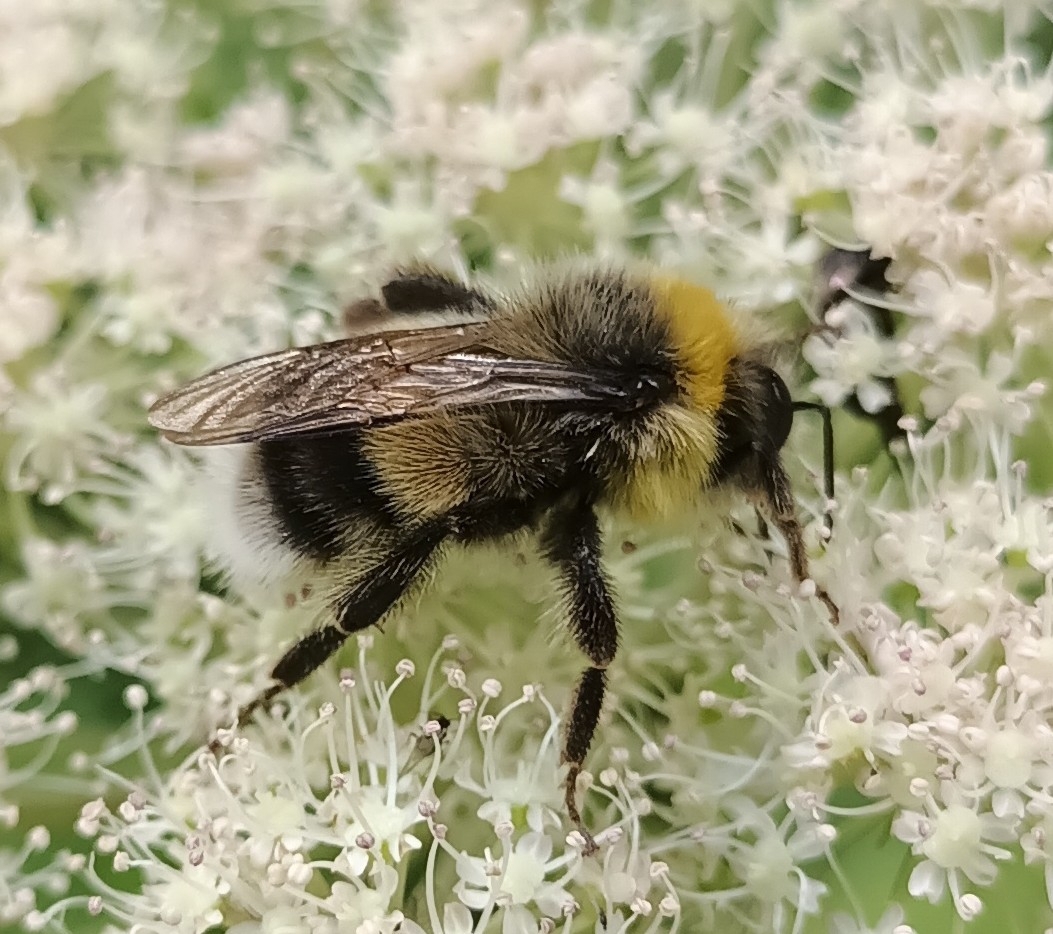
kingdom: Animalia
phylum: Arthropoda
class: Insecta
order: Hymenoptera
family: Apidae
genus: Bombus
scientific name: Bombus lucorum
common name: White-tailed bumblebee
